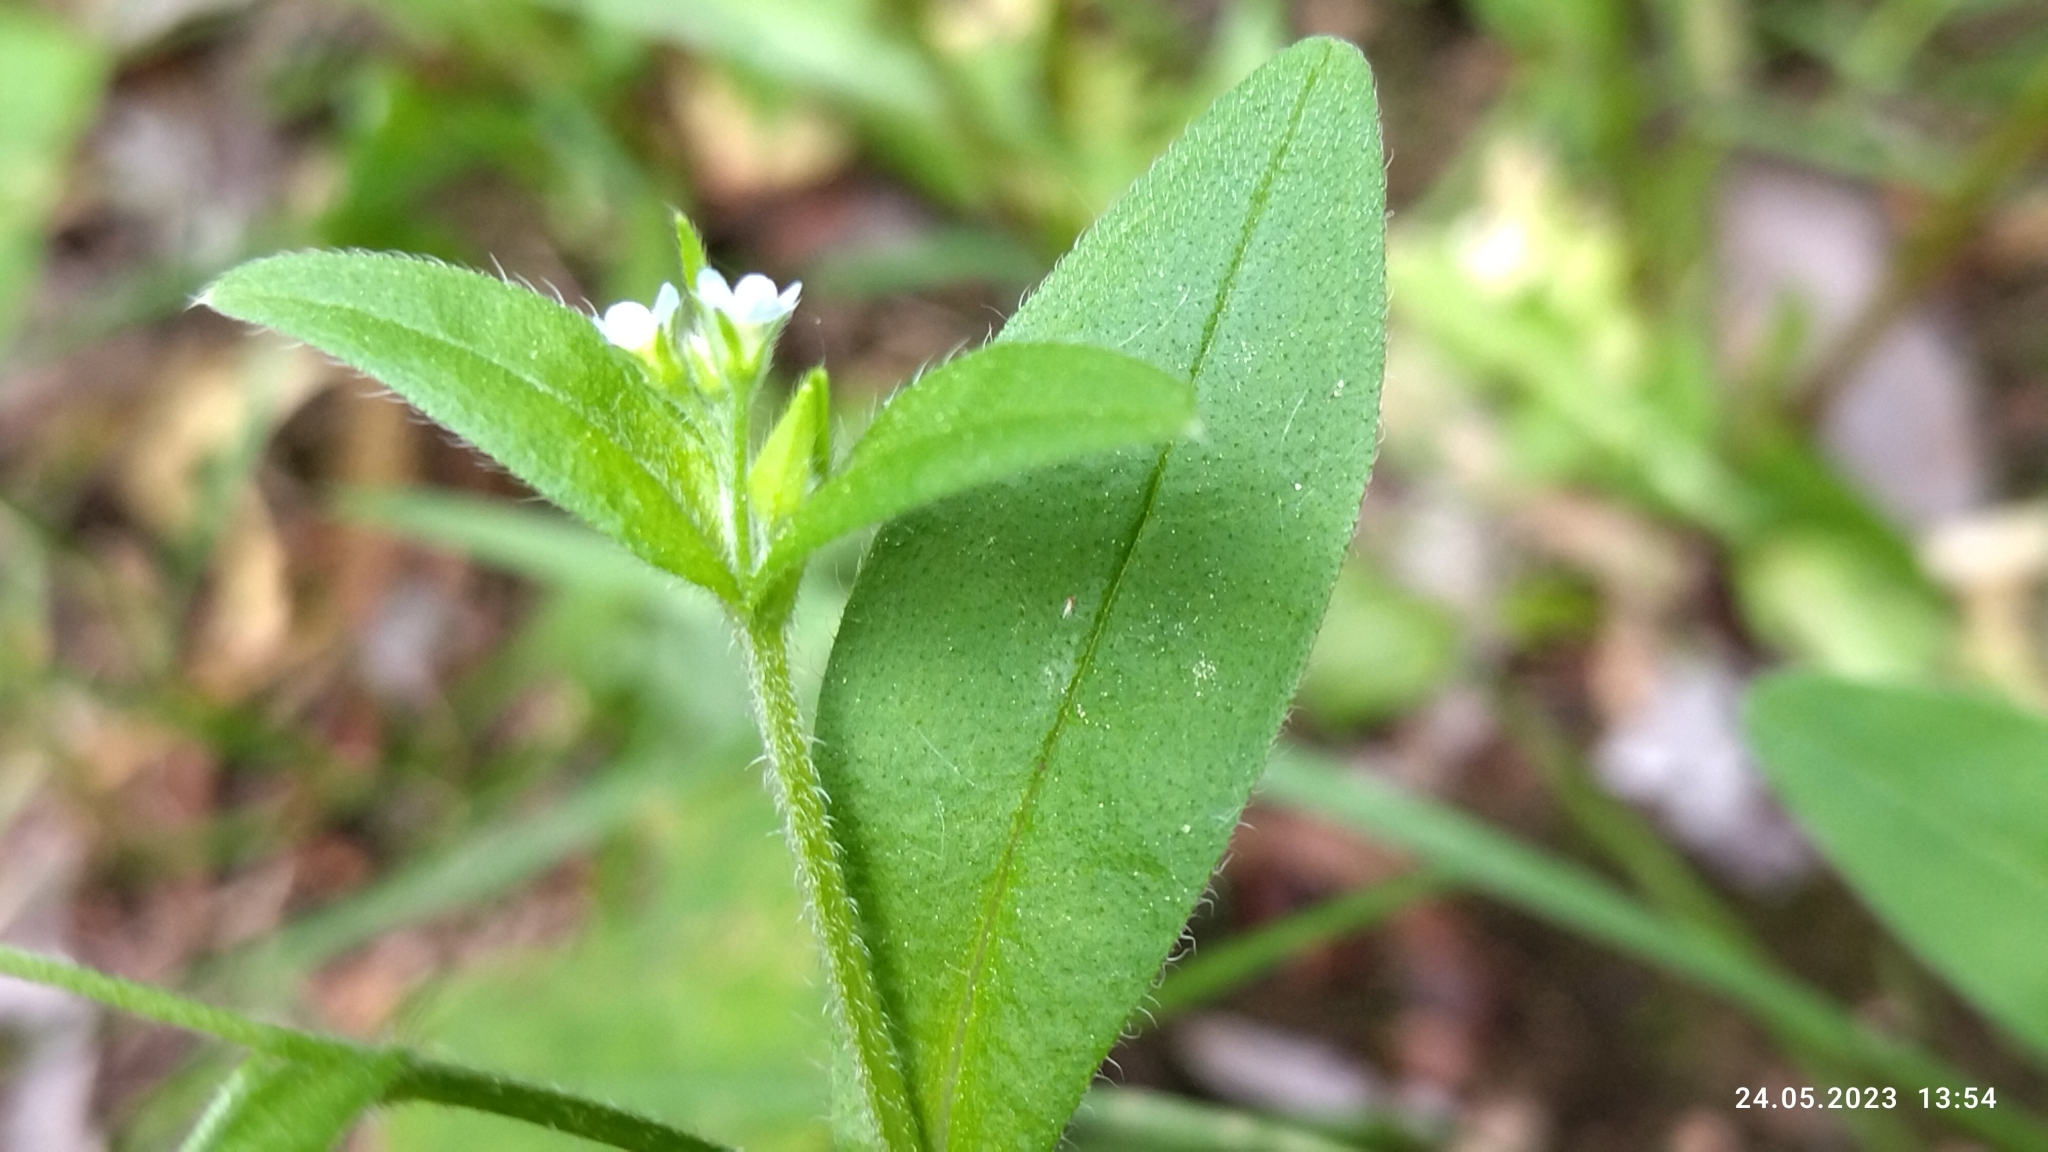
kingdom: Plantae
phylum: Tracheophyta
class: Magnoliopsida
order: Boraginales
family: Boraginaceae
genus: Myosotis
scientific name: Myosotis sparsiflora
